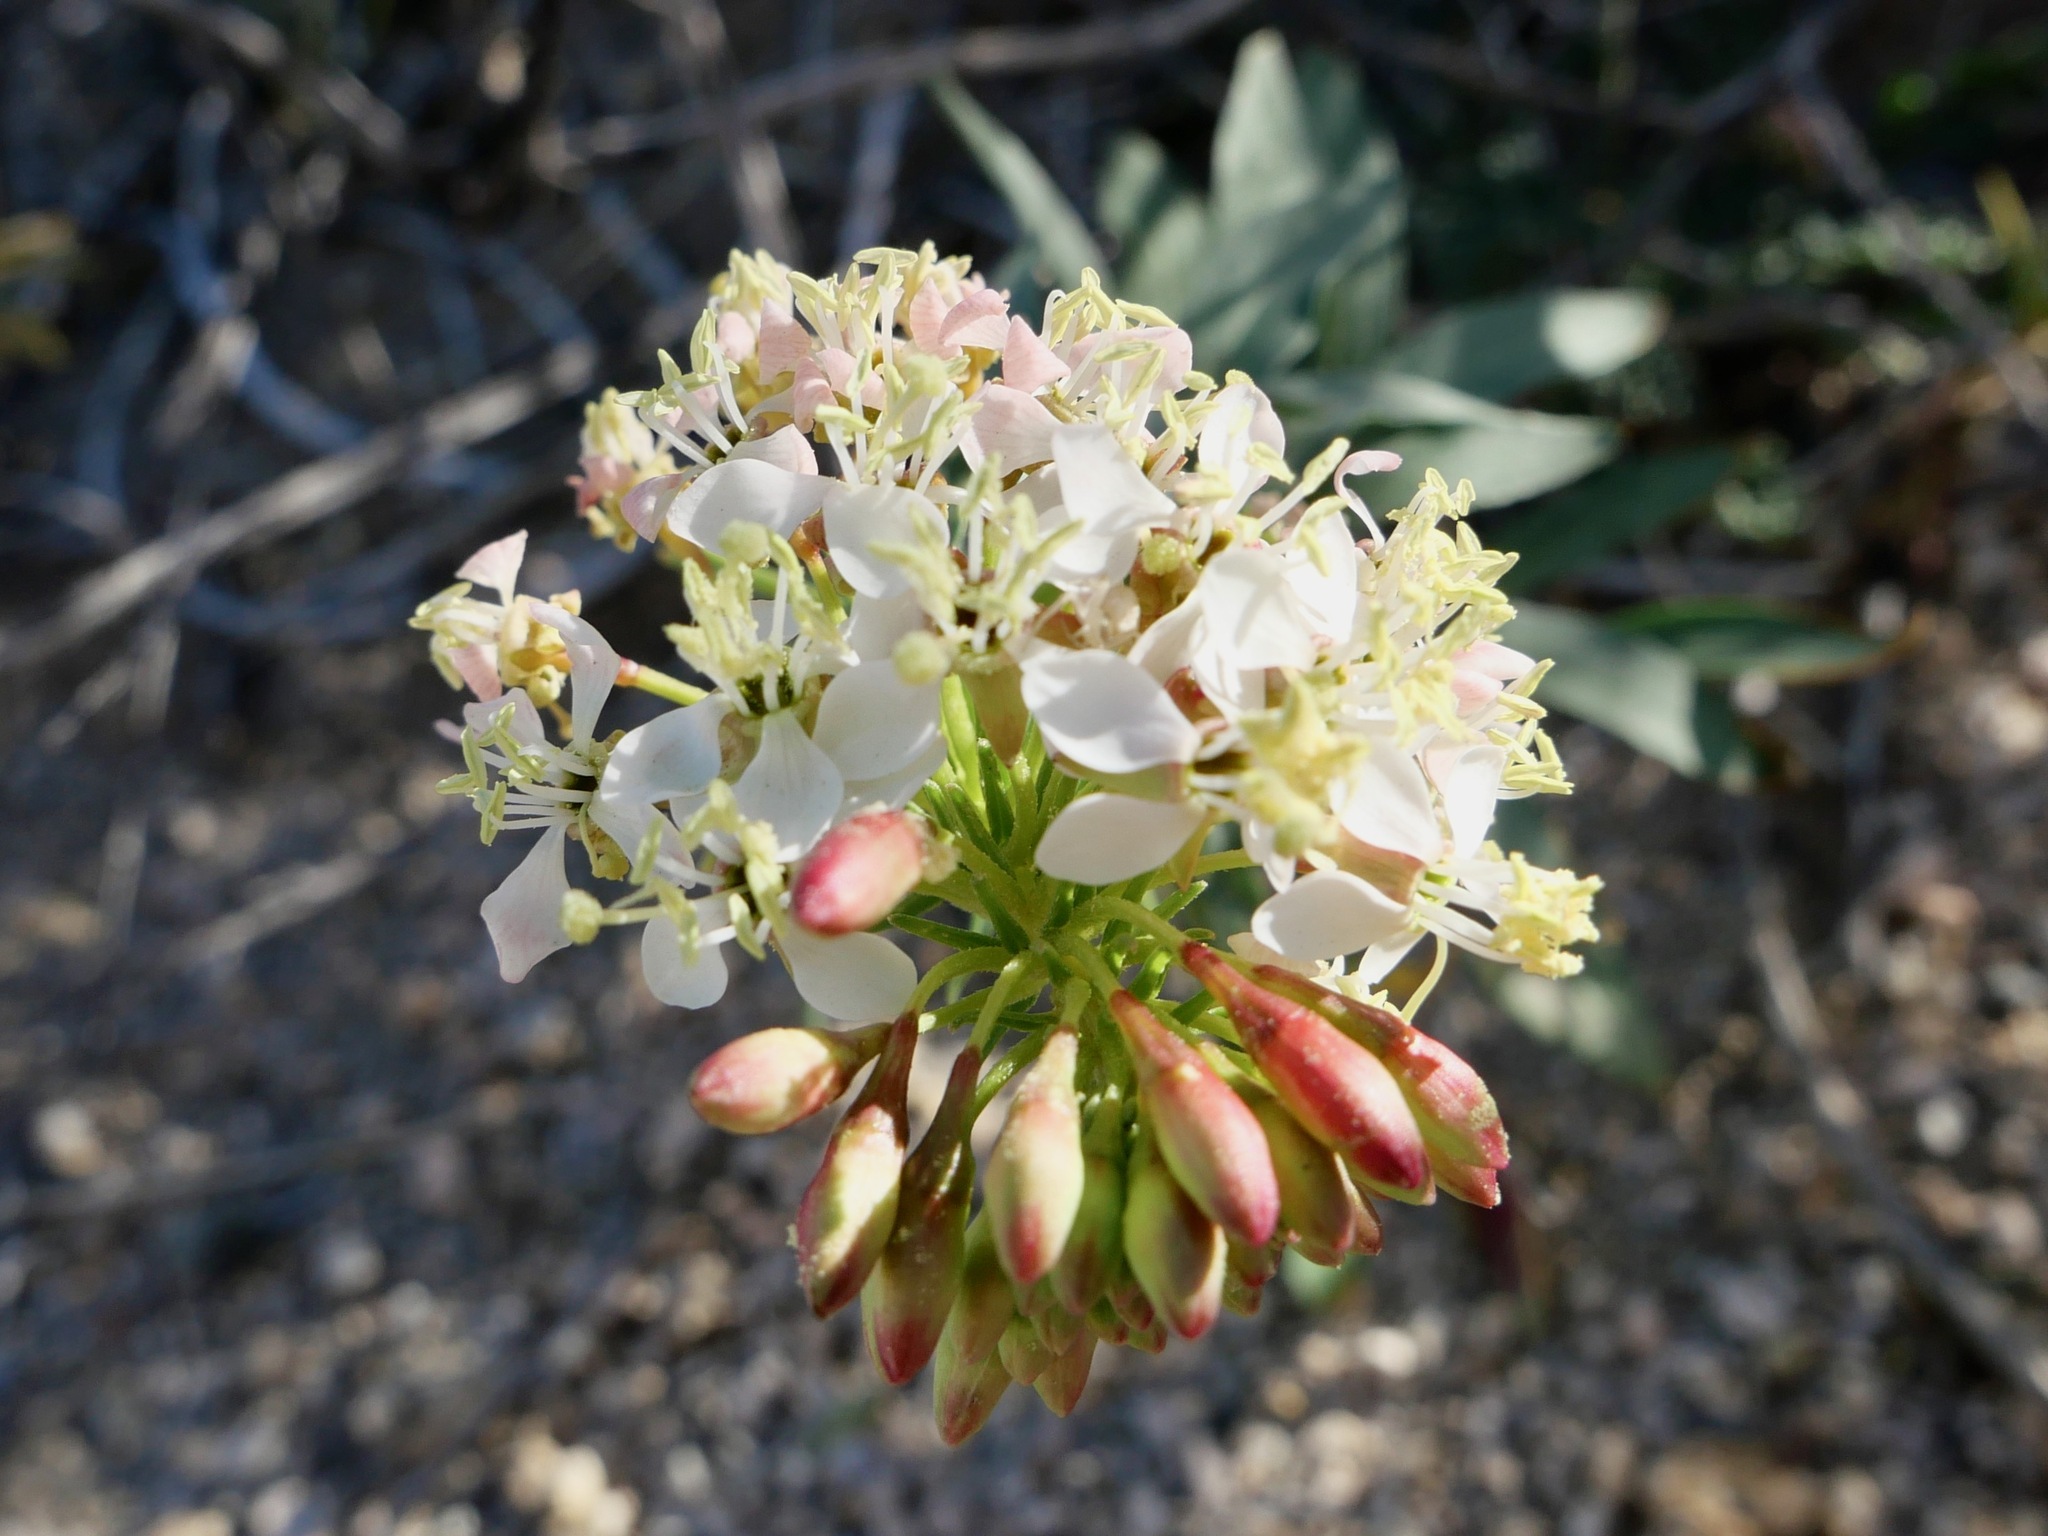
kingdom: Plantae
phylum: Tracheophyta
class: Magnoliopsida
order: Myrtales
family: Onagraceae
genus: Eremothera
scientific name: Eremothera boothii
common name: Booth's evening primrose
